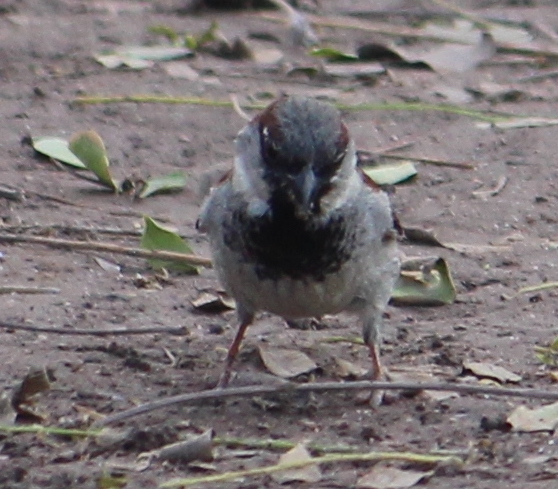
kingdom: Animalia
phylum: Chordata
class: Aves
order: Passeriformes
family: Passeridae
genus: Passer
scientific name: Passer domesticus
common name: House sparrow
